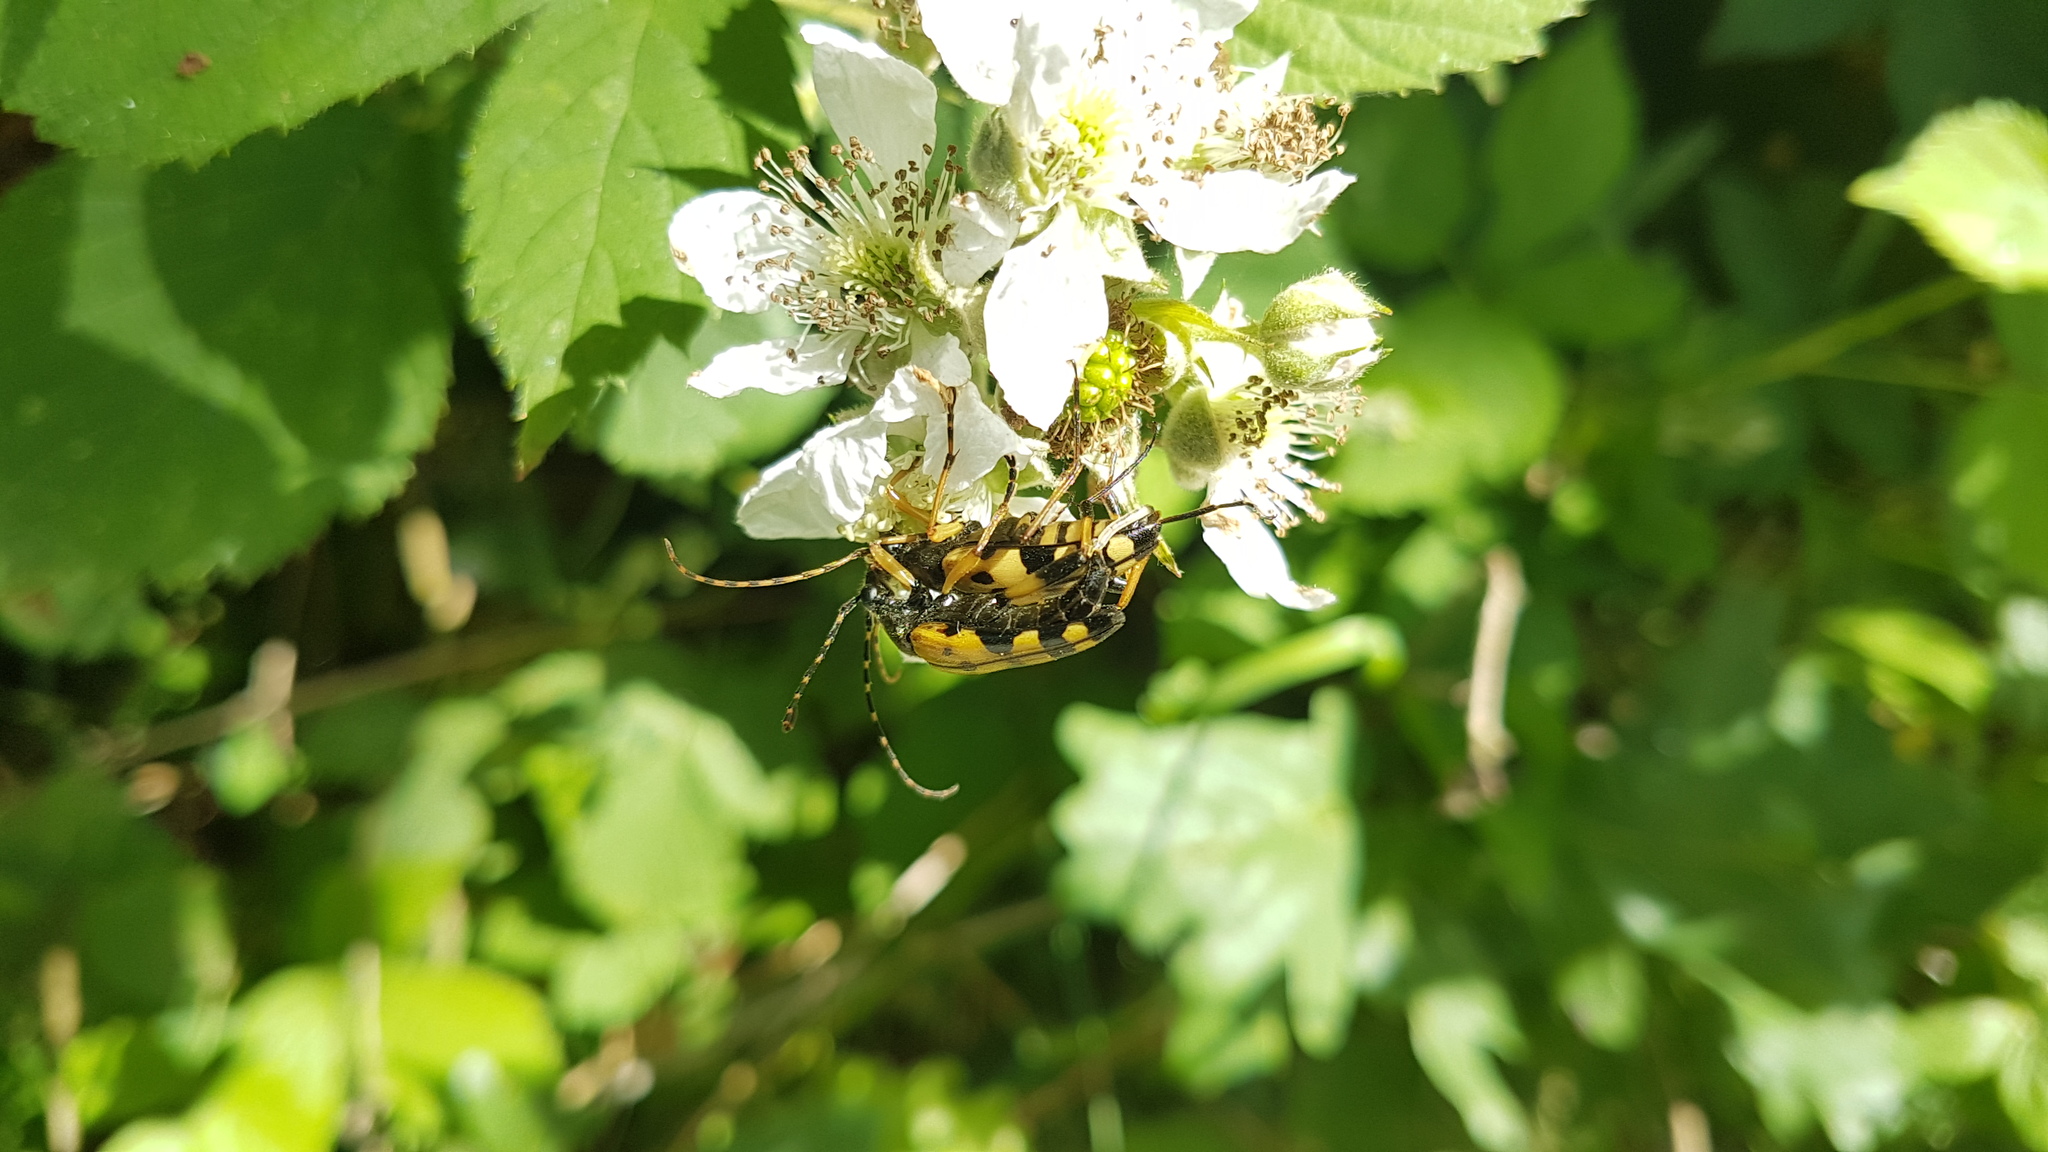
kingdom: Animalia
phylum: Arthropoda
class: Insecta
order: Coleoptera
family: Cerambycidae
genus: Rutpela
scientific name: Rutpela maculata
